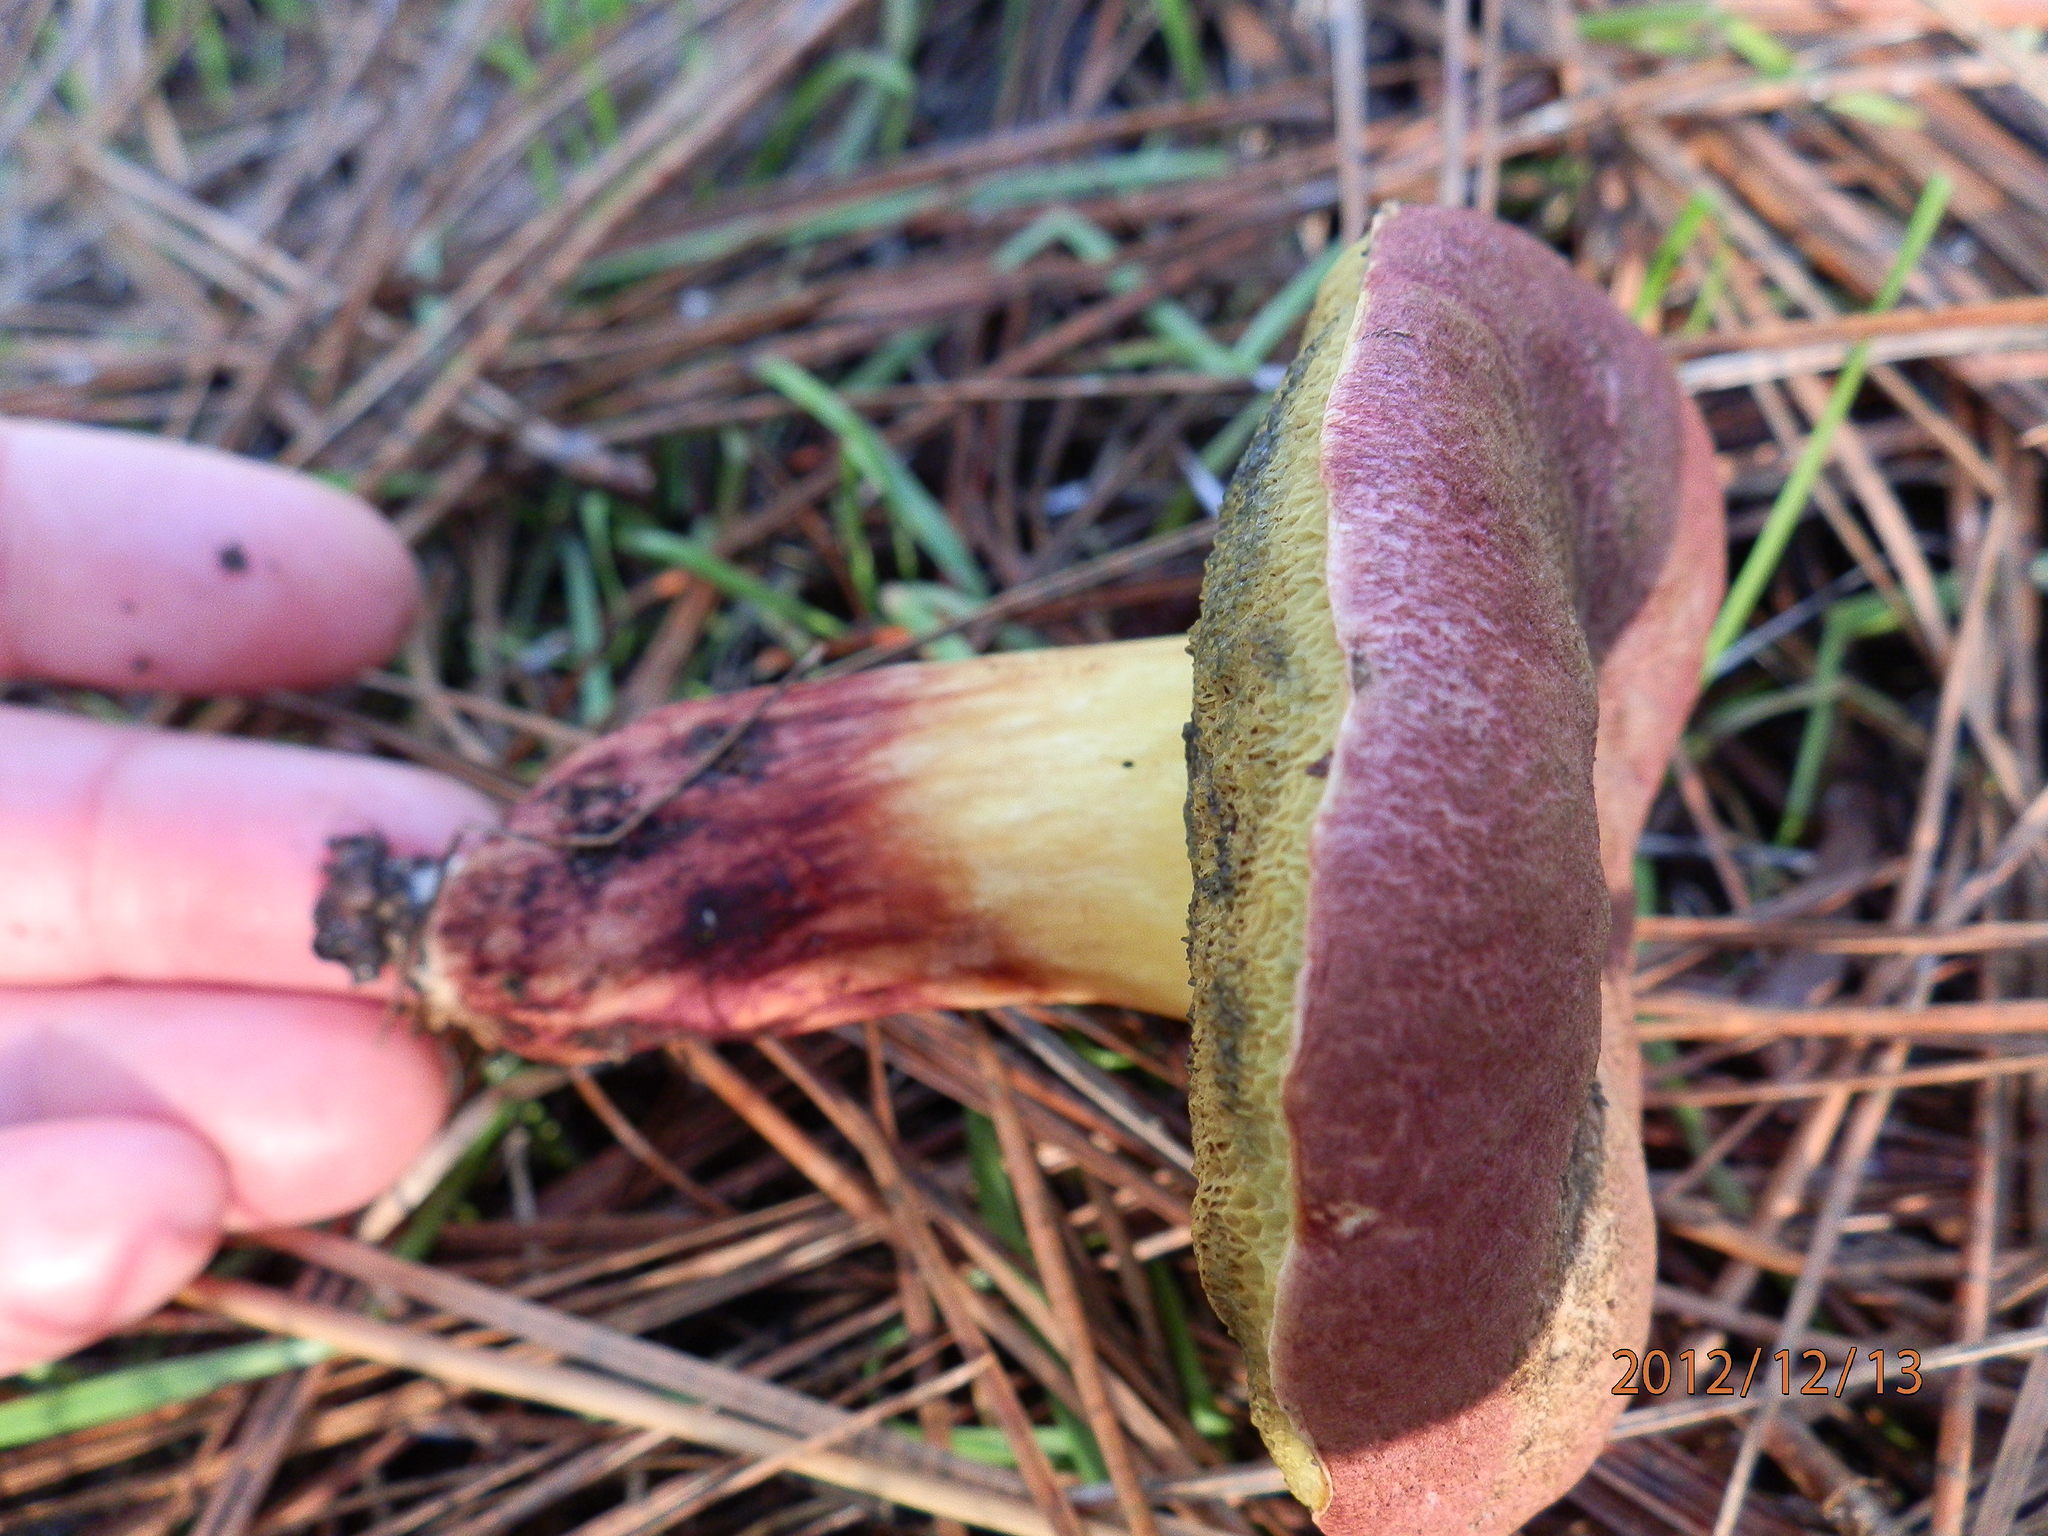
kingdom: Fungi
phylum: Basidiomycota
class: Agaricomycetes
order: Boletales
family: Boletaceae
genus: Xerocomellus
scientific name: Xerocomellus dryophilus
